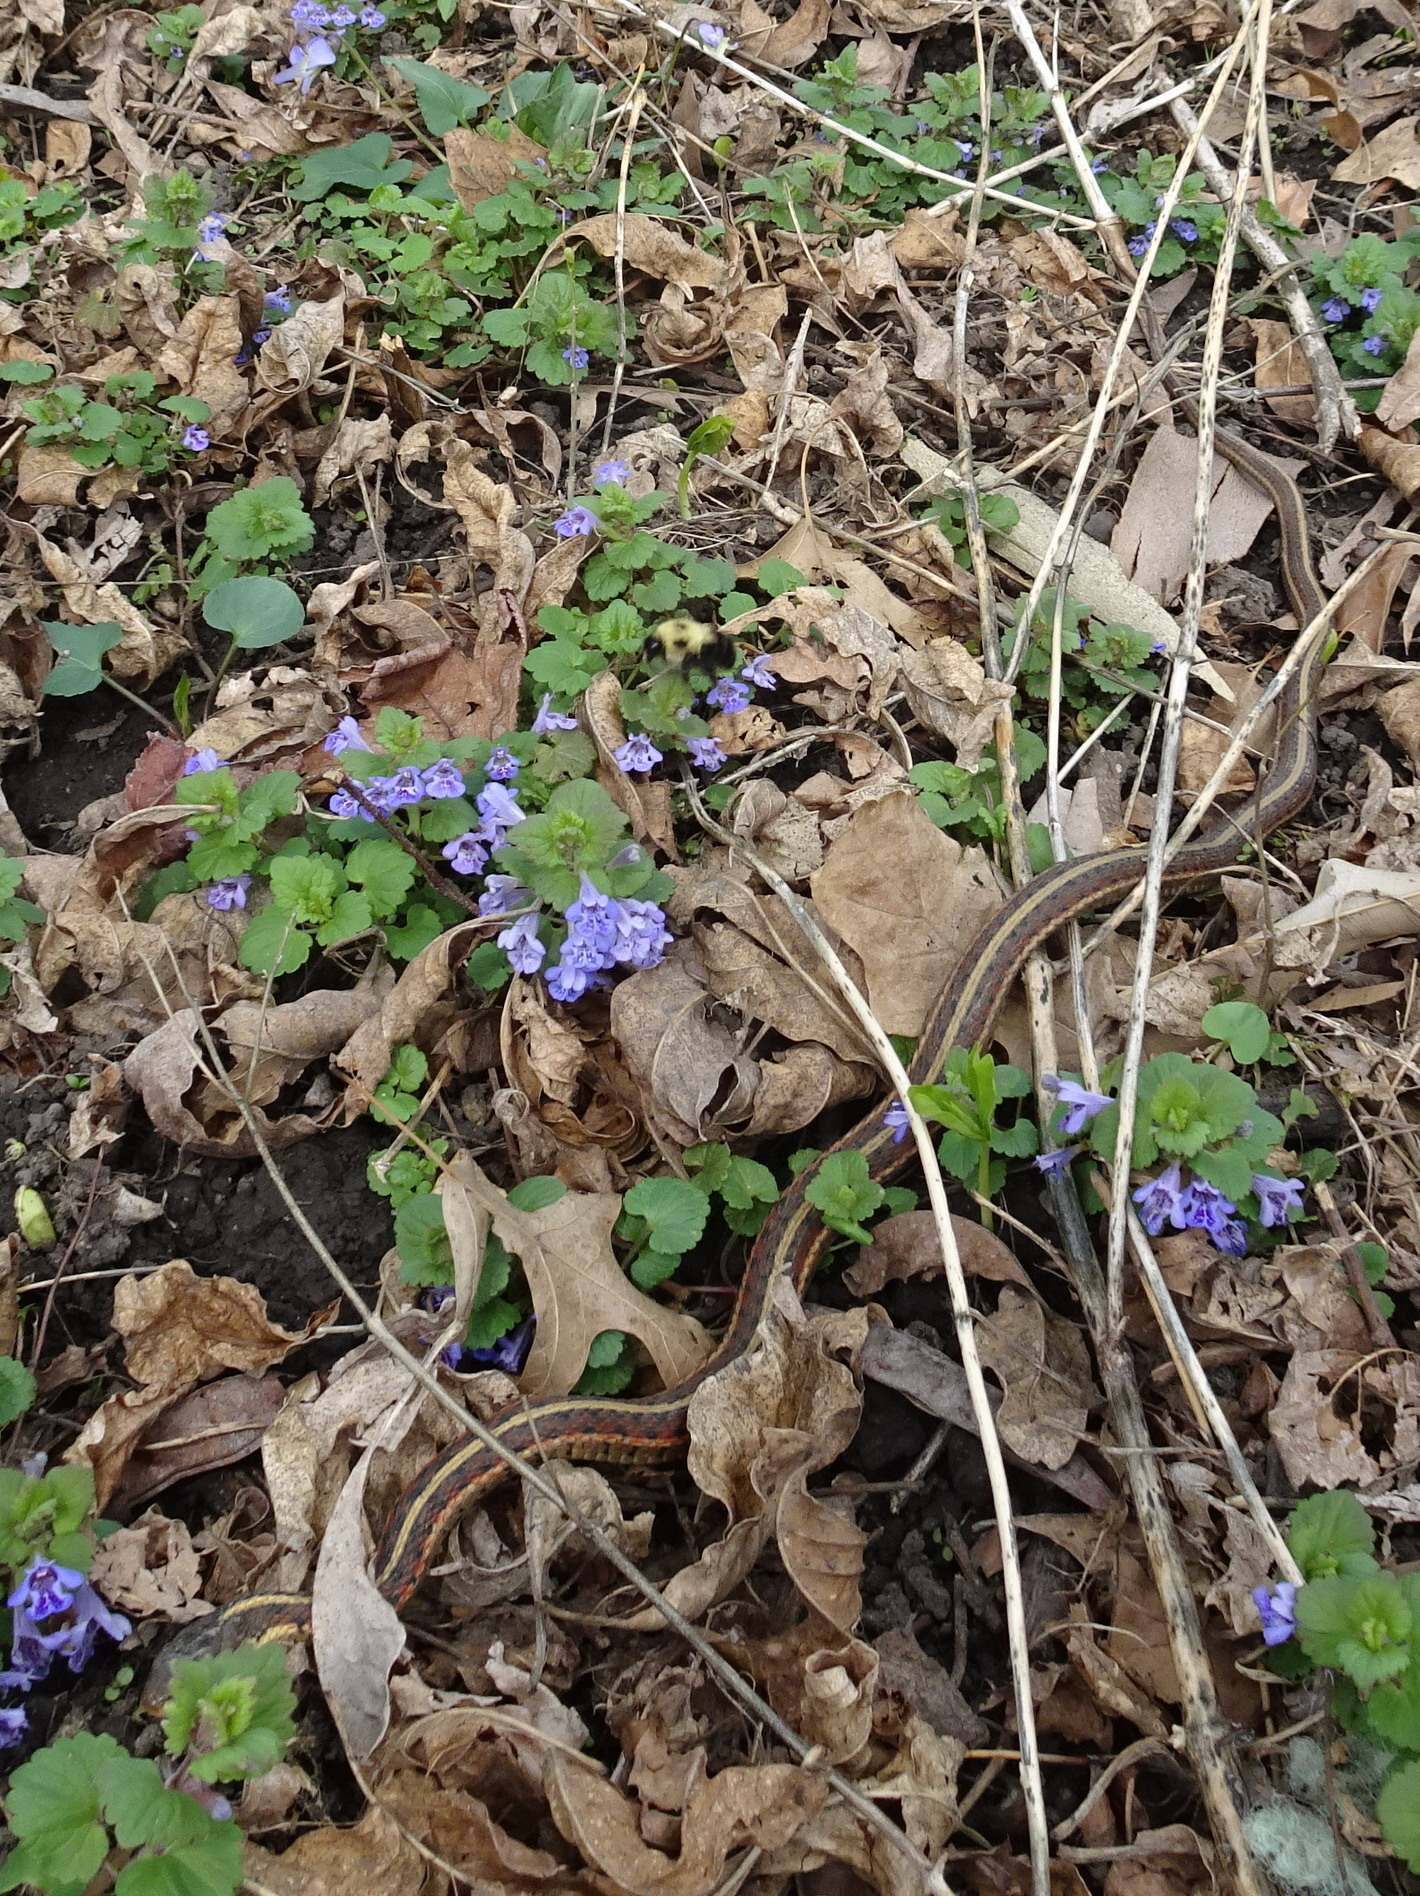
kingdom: Animalia
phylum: Arthropoda
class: Insecta
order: Hymenoptera
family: Apidae
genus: Bombus
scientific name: Bombus bimaculatus
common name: Two-spotted bumble bee
